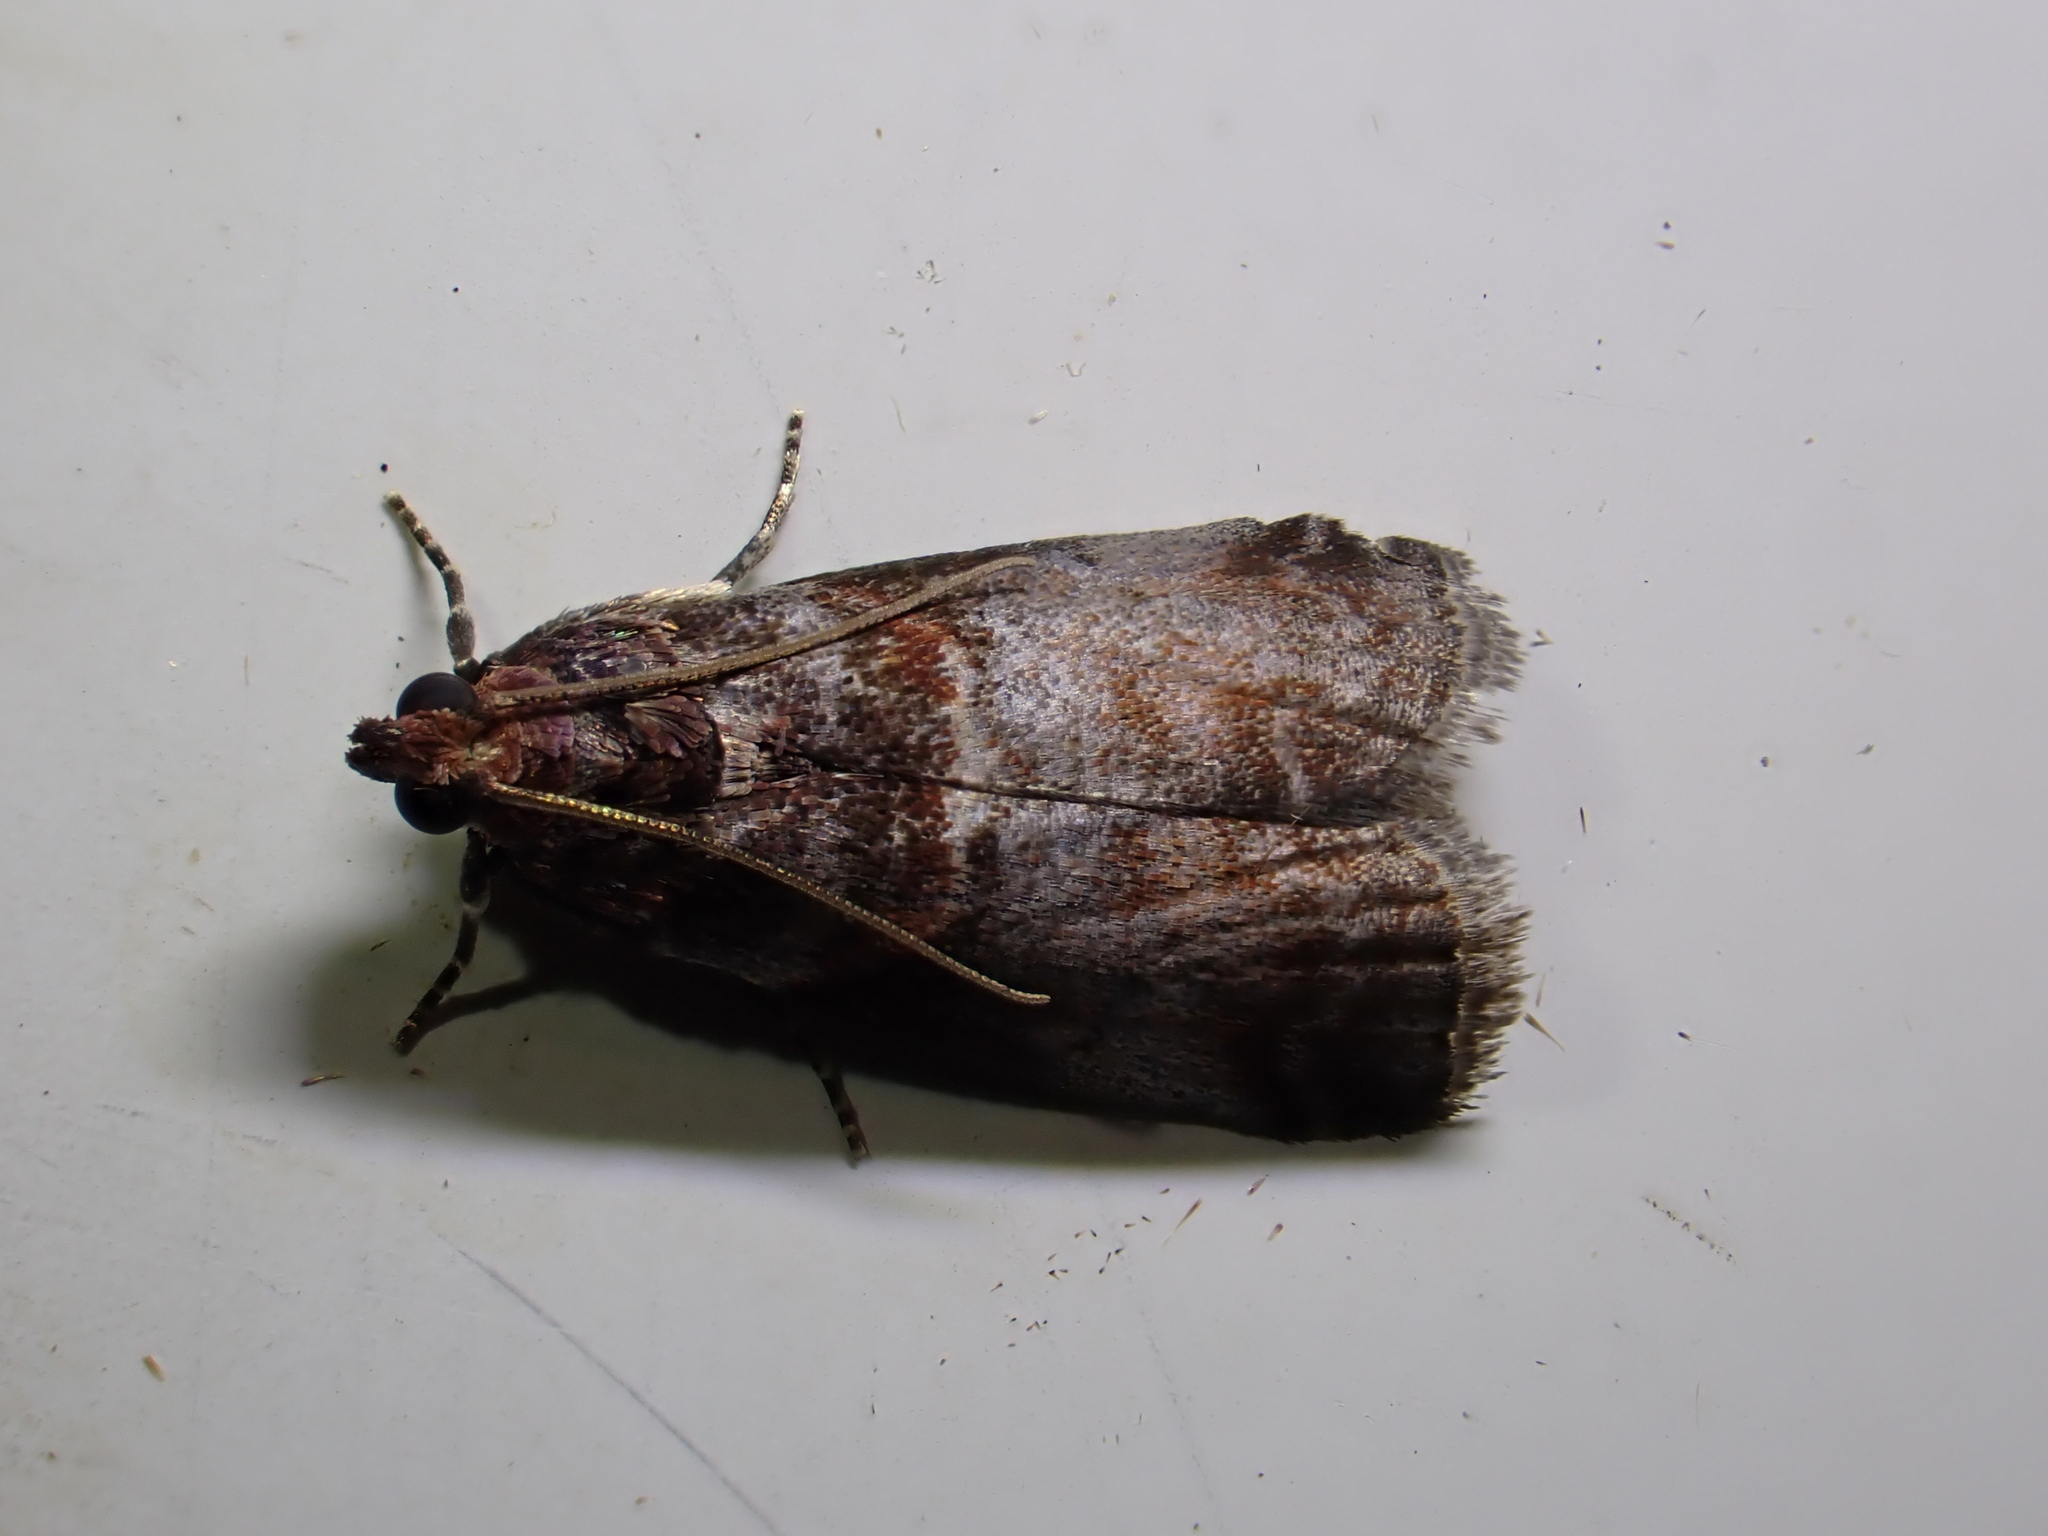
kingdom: Animalia
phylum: Arthropoda
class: Insecta
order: Lepidoptera
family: Pyralidae
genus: Acrobasis
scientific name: Acrobasis advenella
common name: Grey knot-horn
